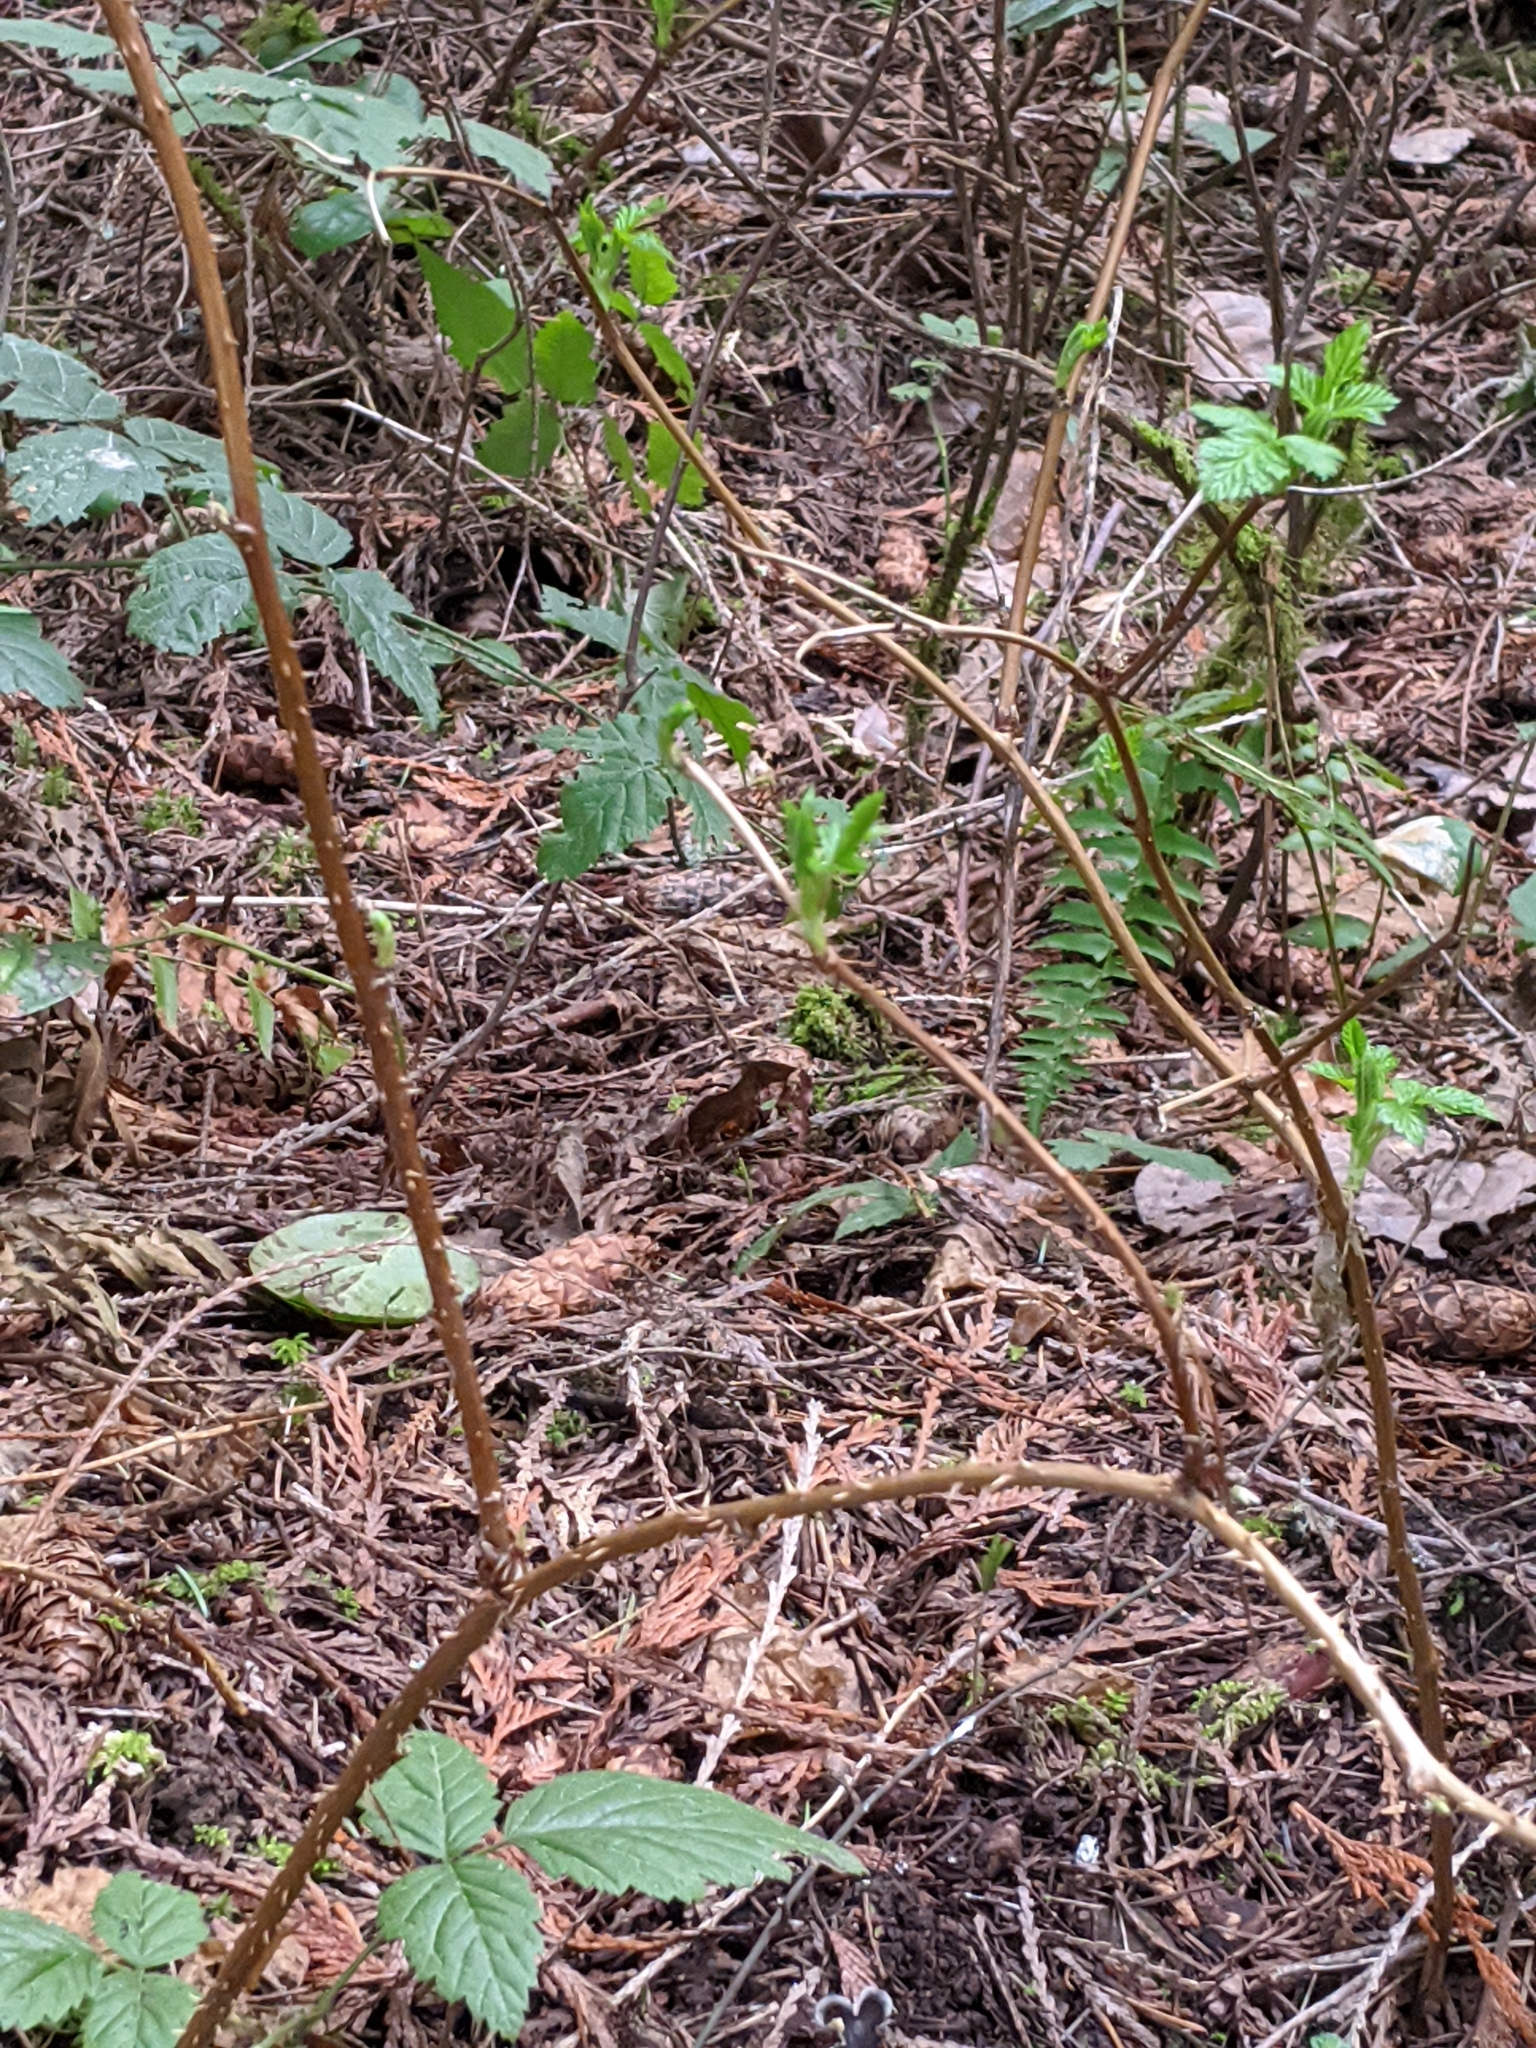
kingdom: Plantae
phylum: Tracheophyta
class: Magnoliopsida
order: Rosales
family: Rosaceae
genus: Rubus
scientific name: Rubus spectabilis
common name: Salmonberry
